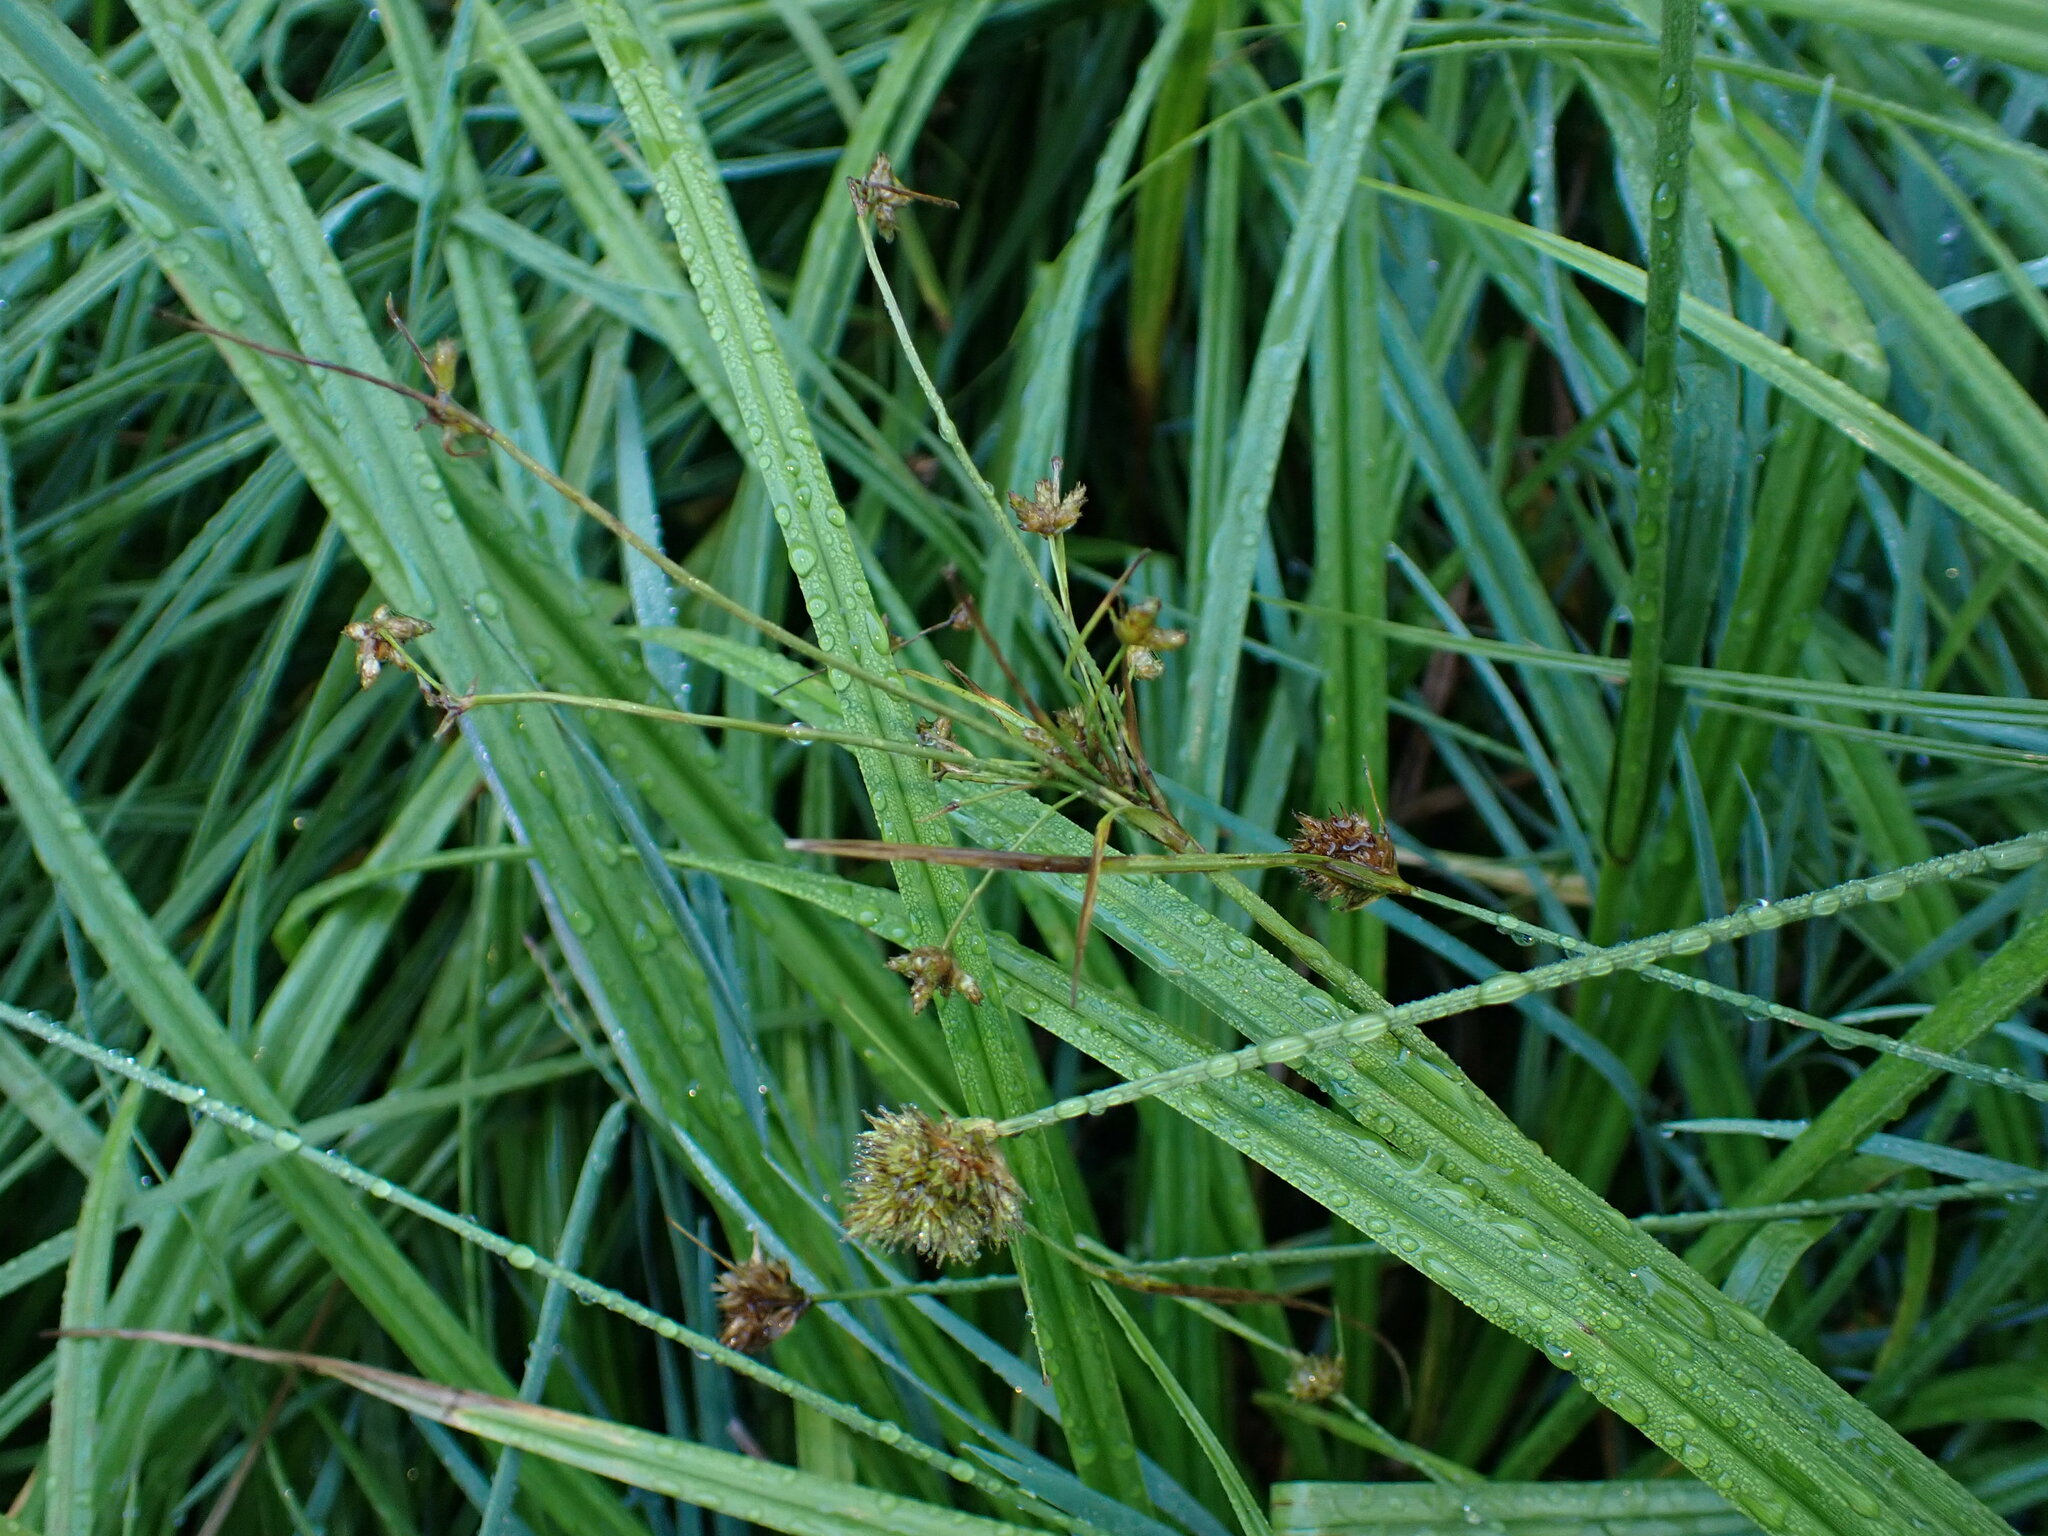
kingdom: Plantae
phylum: Tracheophyta
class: Liliopsida
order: Poales
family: Cyperaceae
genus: Scirpus
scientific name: Scirpus microcarpus
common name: Panicled bulrush
